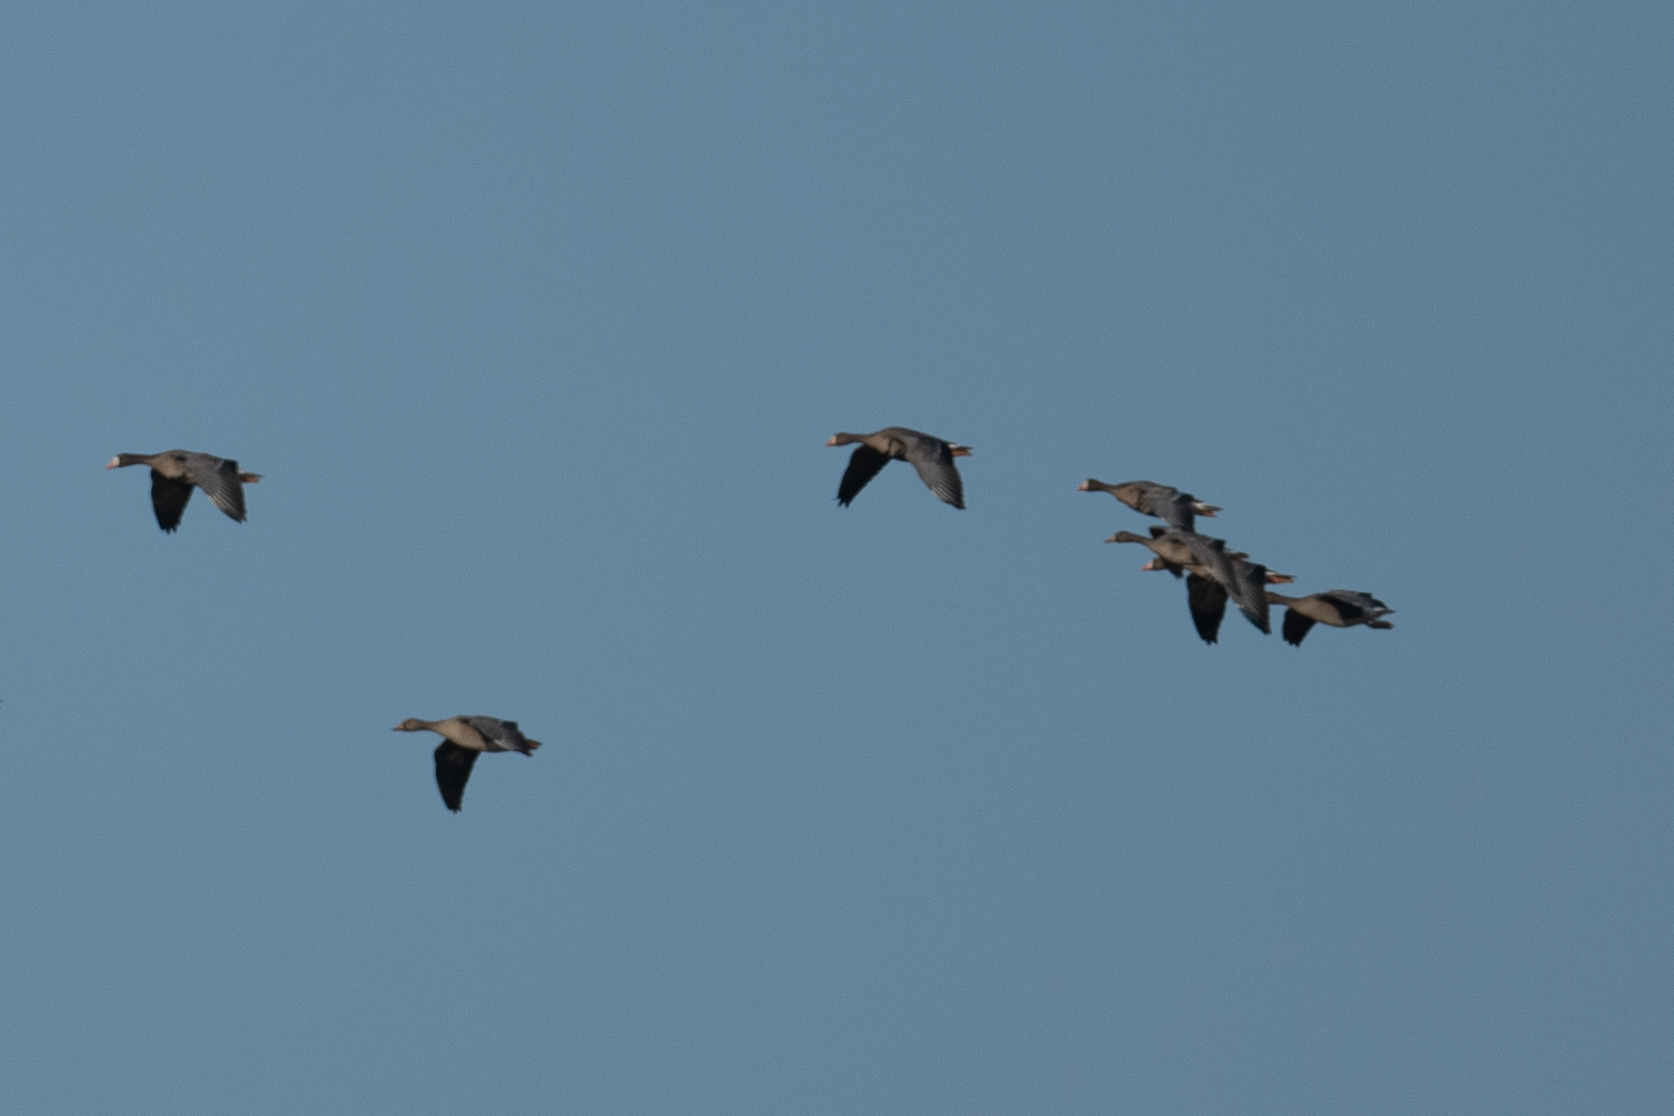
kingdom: Animalia
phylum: Chordata
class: Aves
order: Anseriformes
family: Anatidae
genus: Anser
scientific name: Anser albifrons
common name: Greater white-fronted goose
